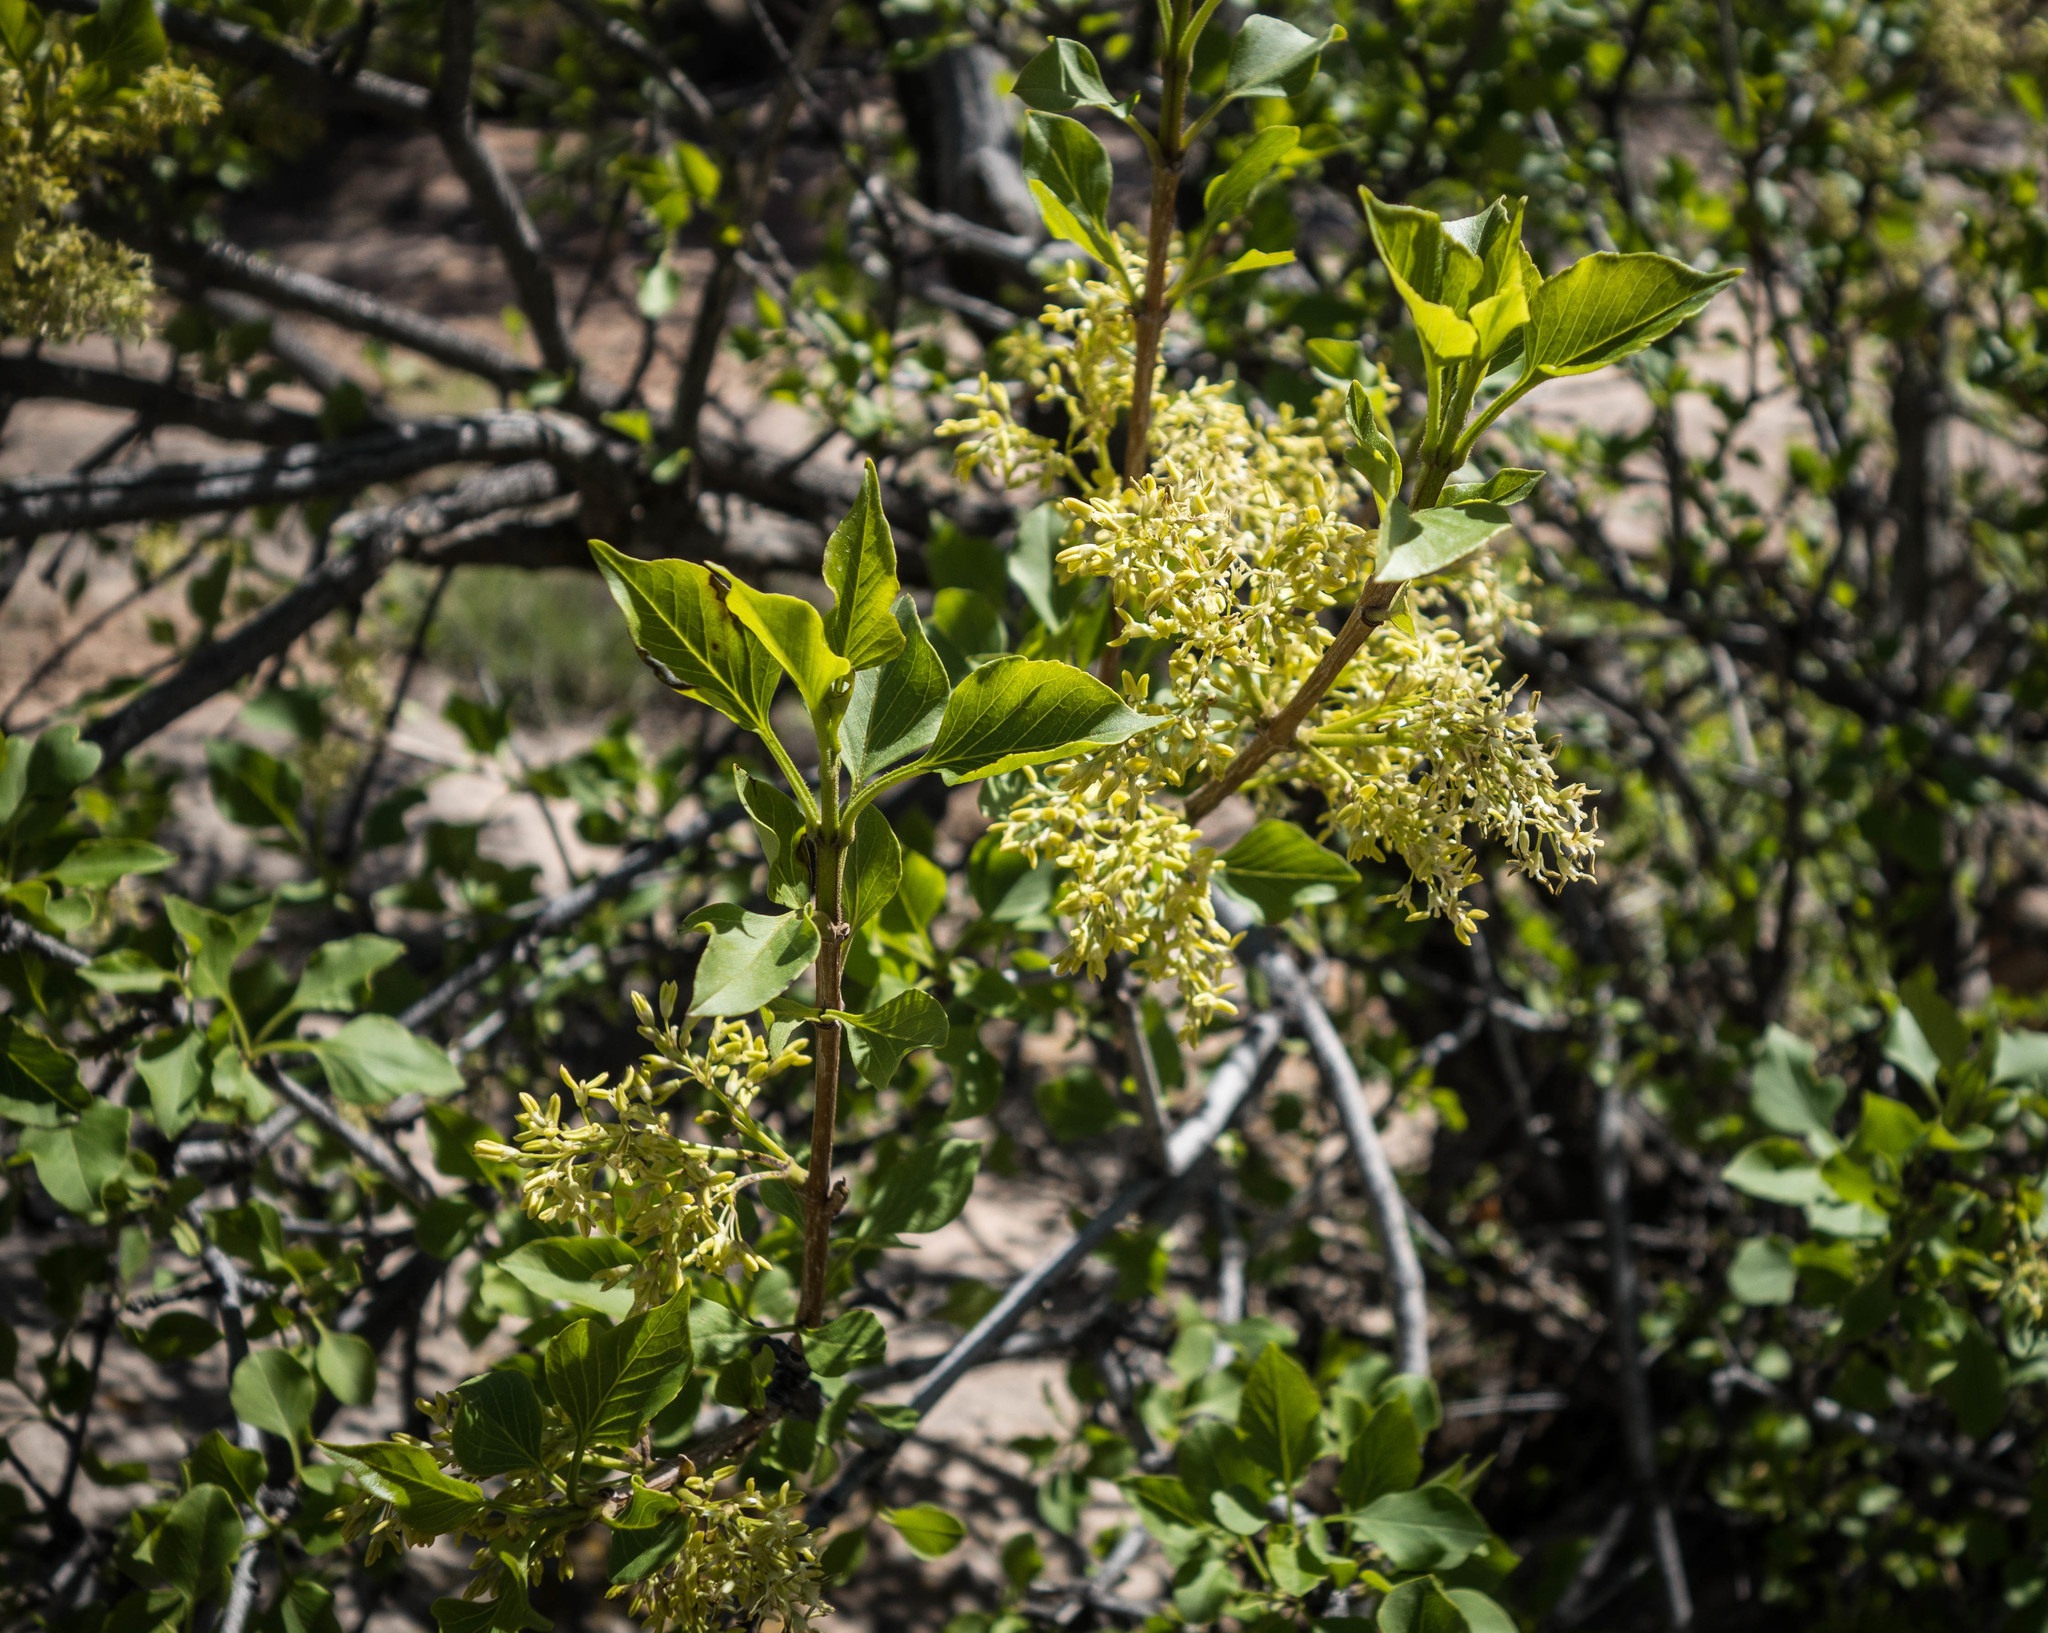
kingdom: Plantae
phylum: Tracheophyta
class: Magnoliopsida
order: Lamiales
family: Oleaceae
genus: Fraxinus
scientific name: Fraxinus anomala
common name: Utah ash
